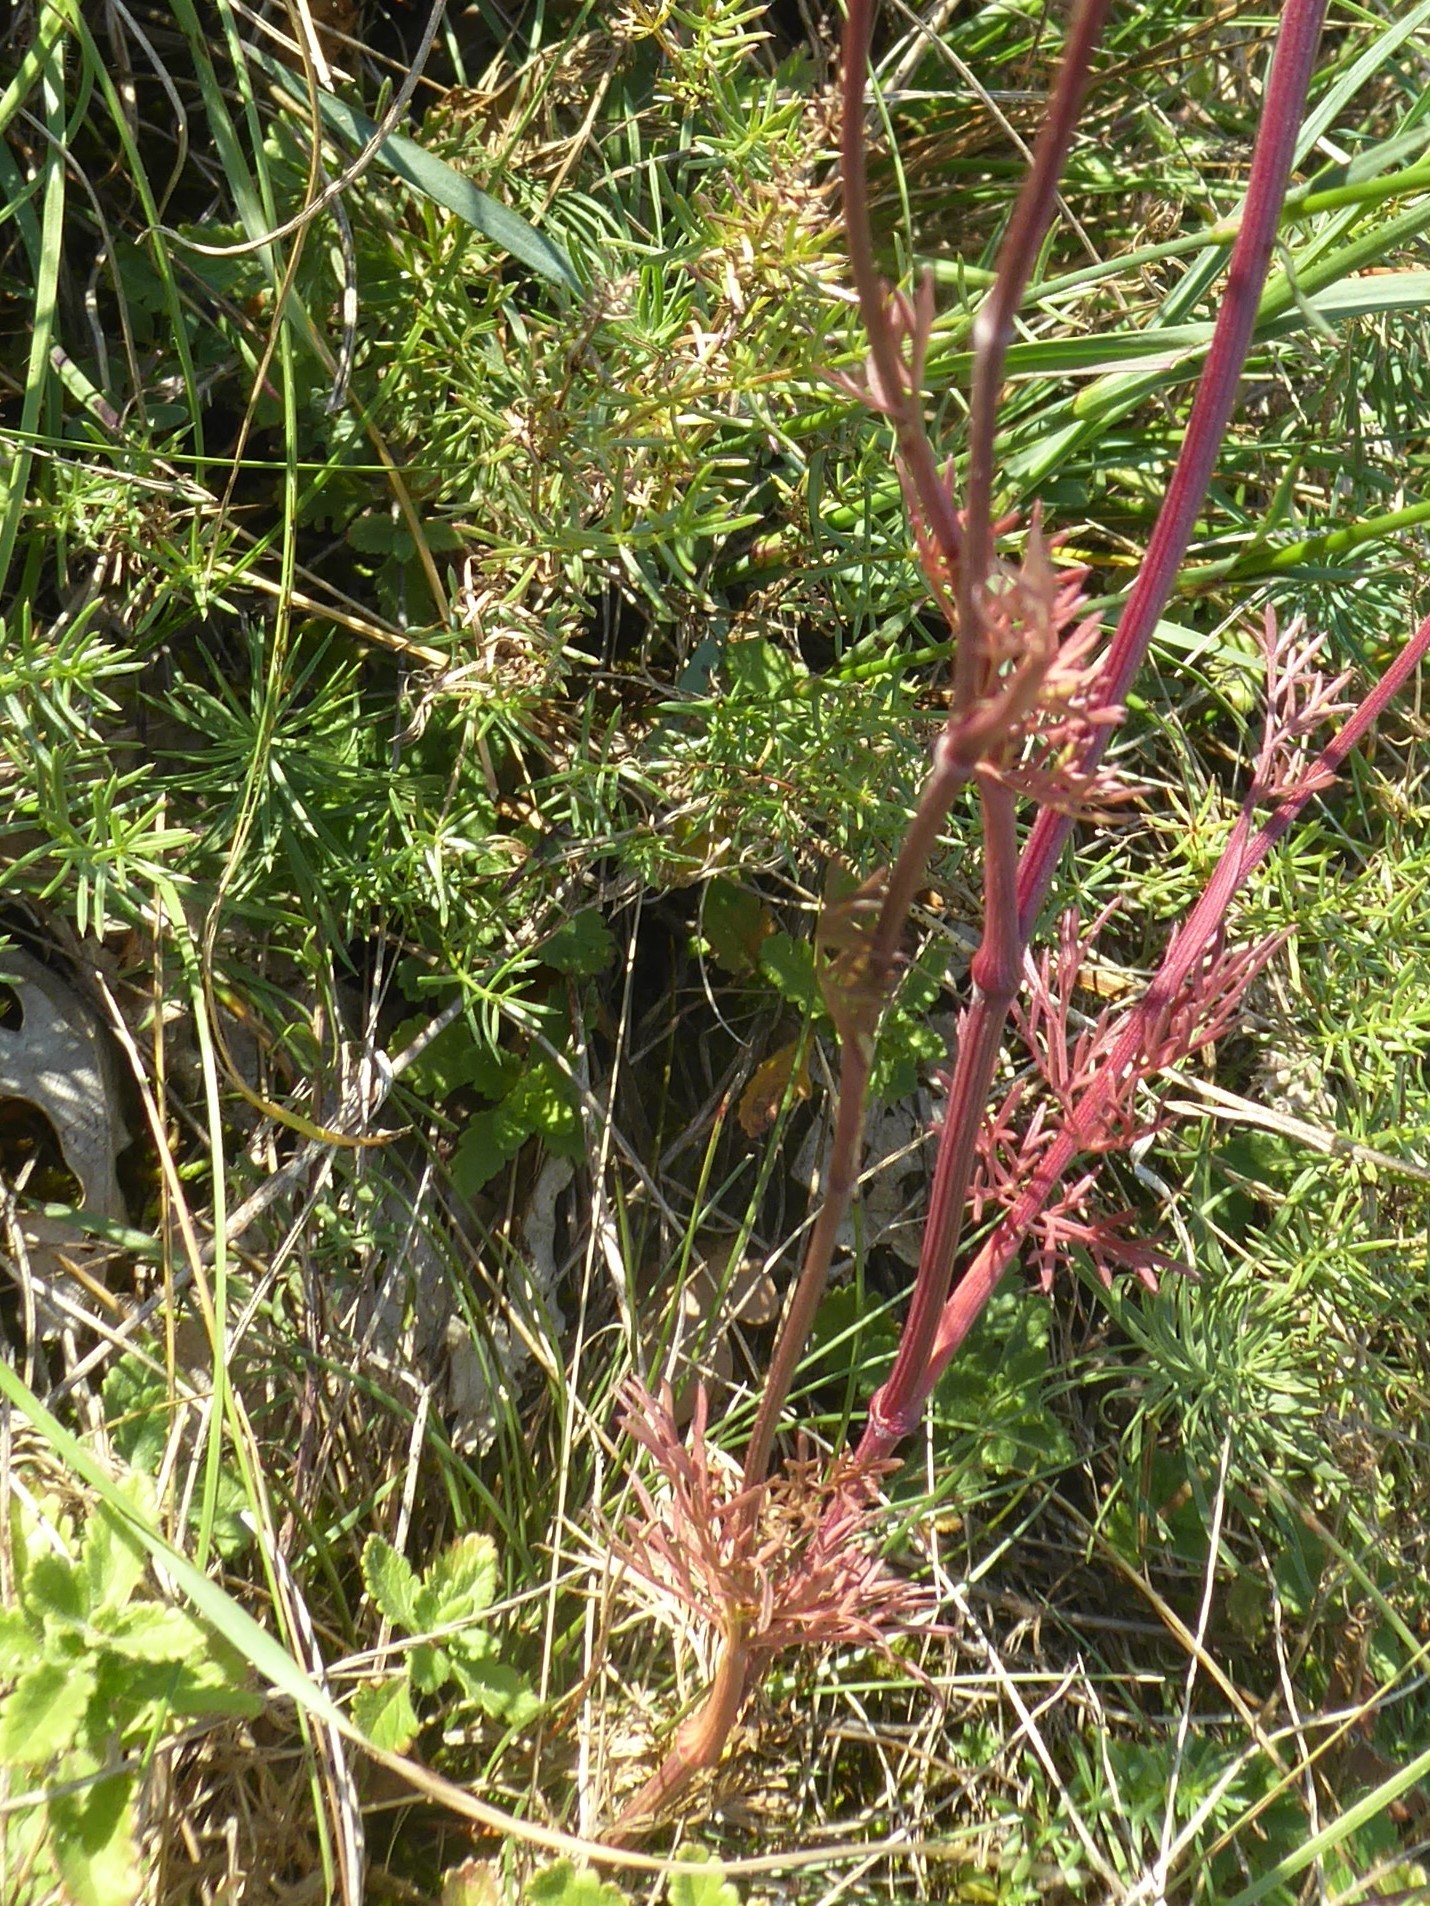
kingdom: Plantae
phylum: Tracheophyta
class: Magnoliopsida
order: Apiales
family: Apiaceae
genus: Seseli
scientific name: Seseli annuum
